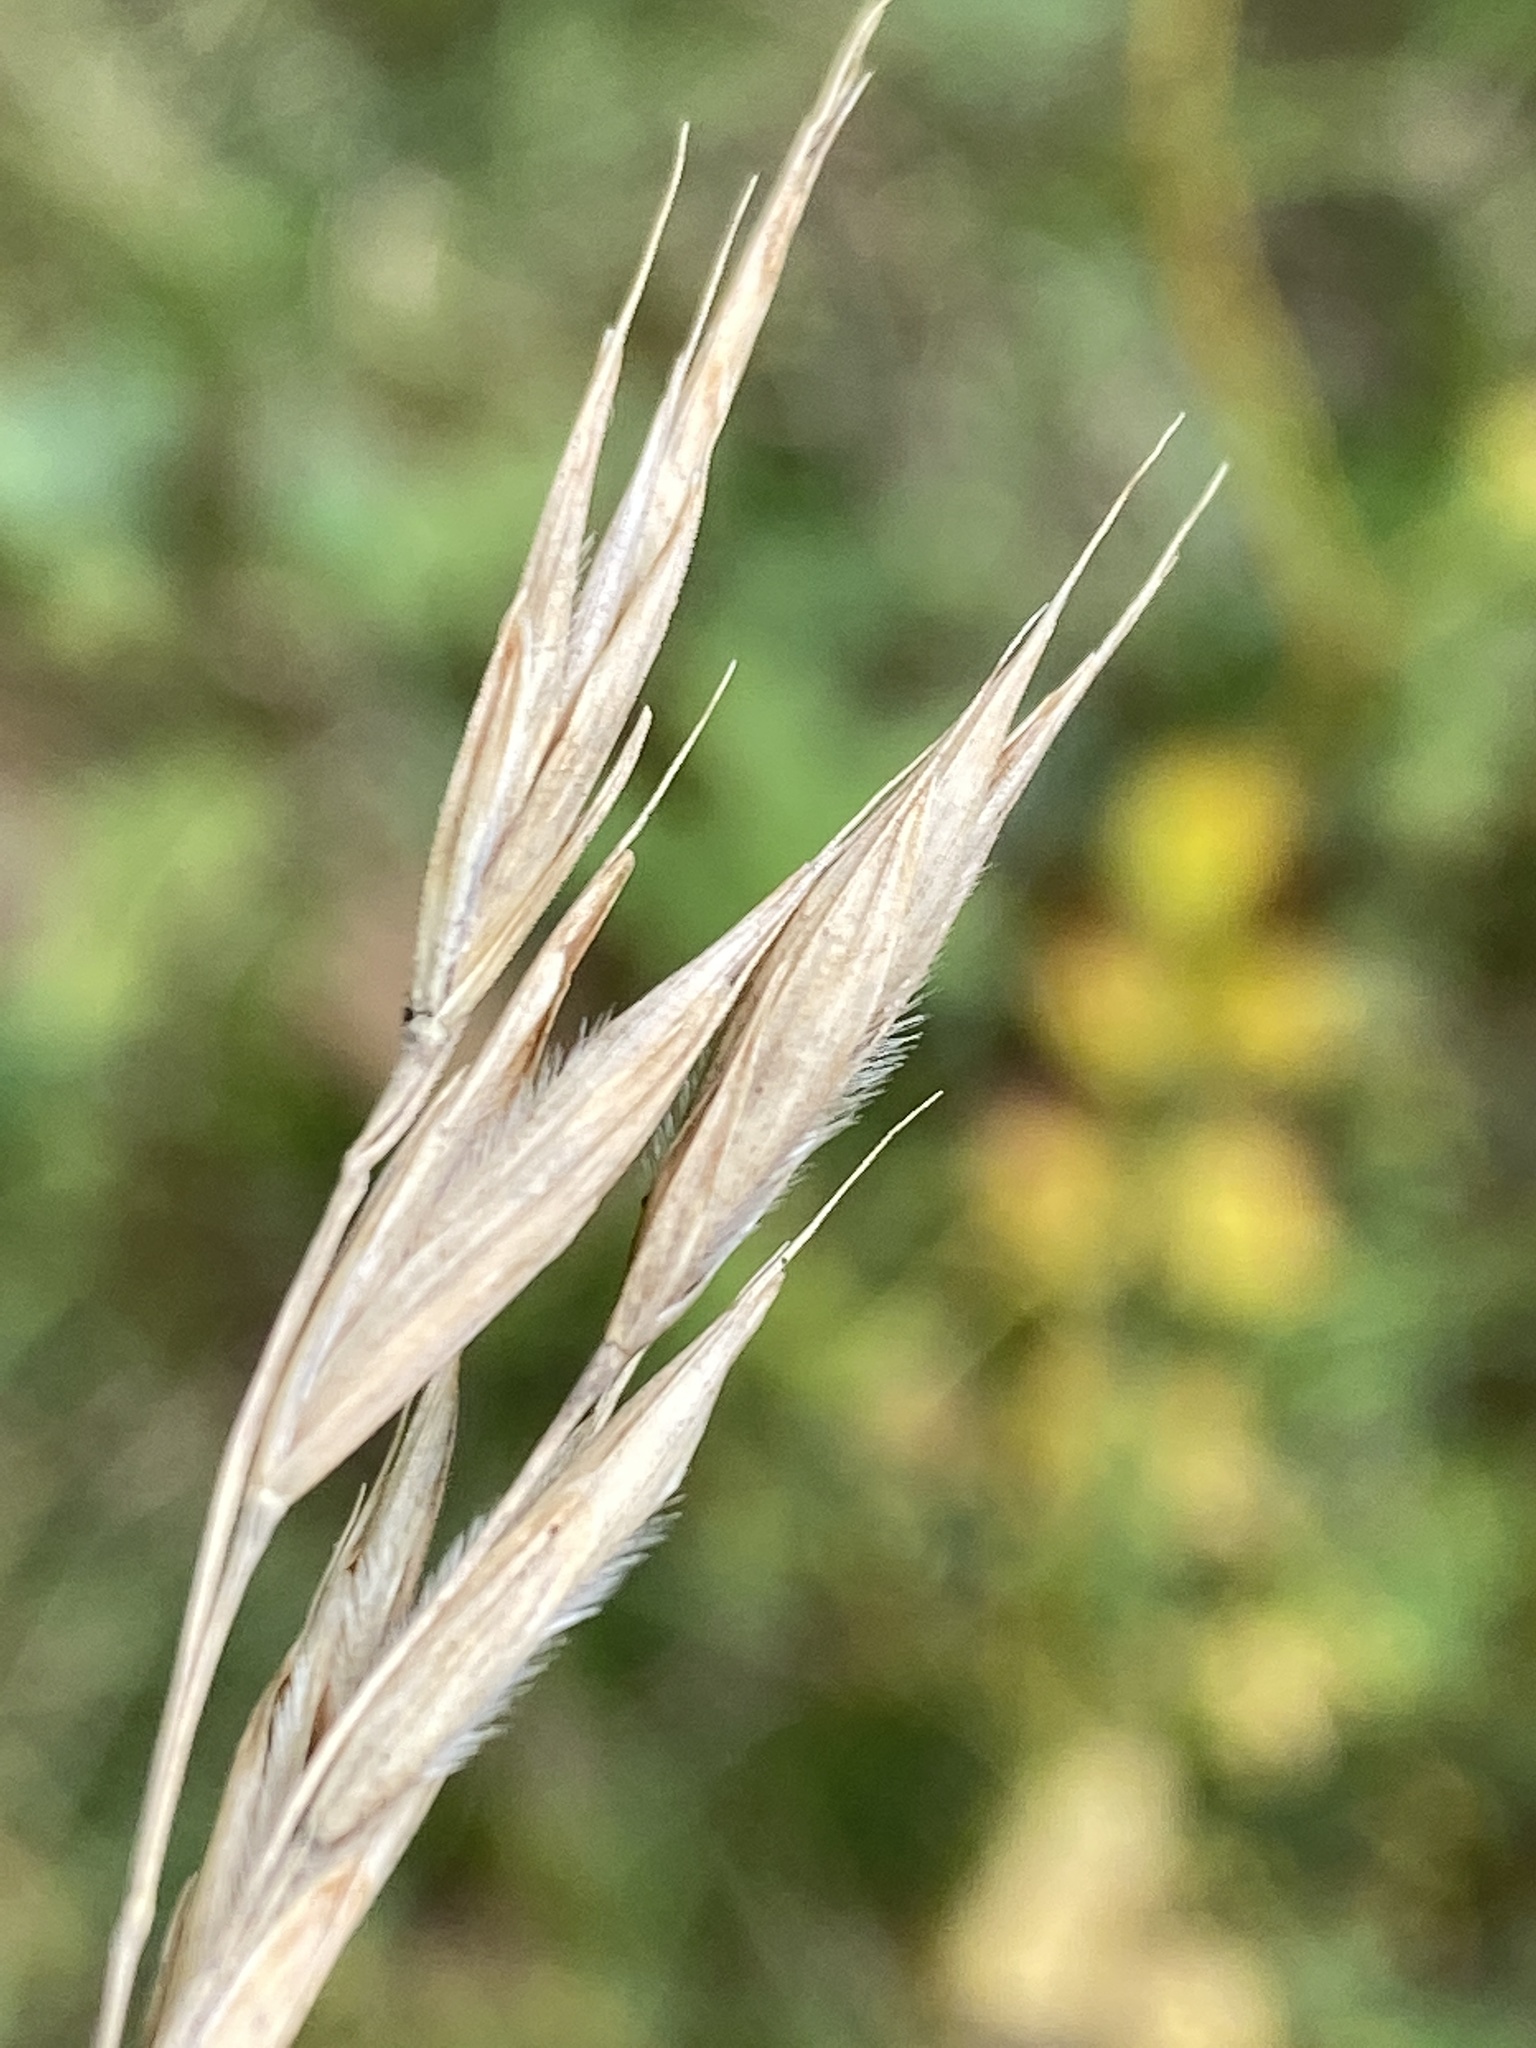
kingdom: Plantae
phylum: Tracheophyta
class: Liliopsida
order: Poales
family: Poaceae
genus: Bromus
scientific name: Bromus ciliatus
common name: Fringe brome
